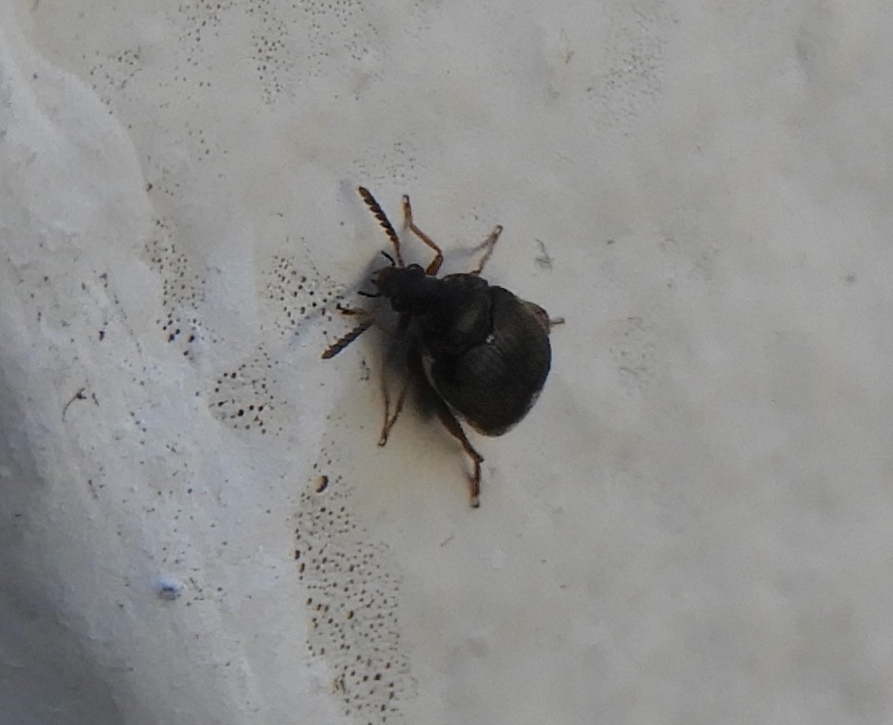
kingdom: Animalia
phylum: Arthropoda
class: Insecta
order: Coleoptera
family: Chrysomelidae
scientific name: Chrysomelidae
